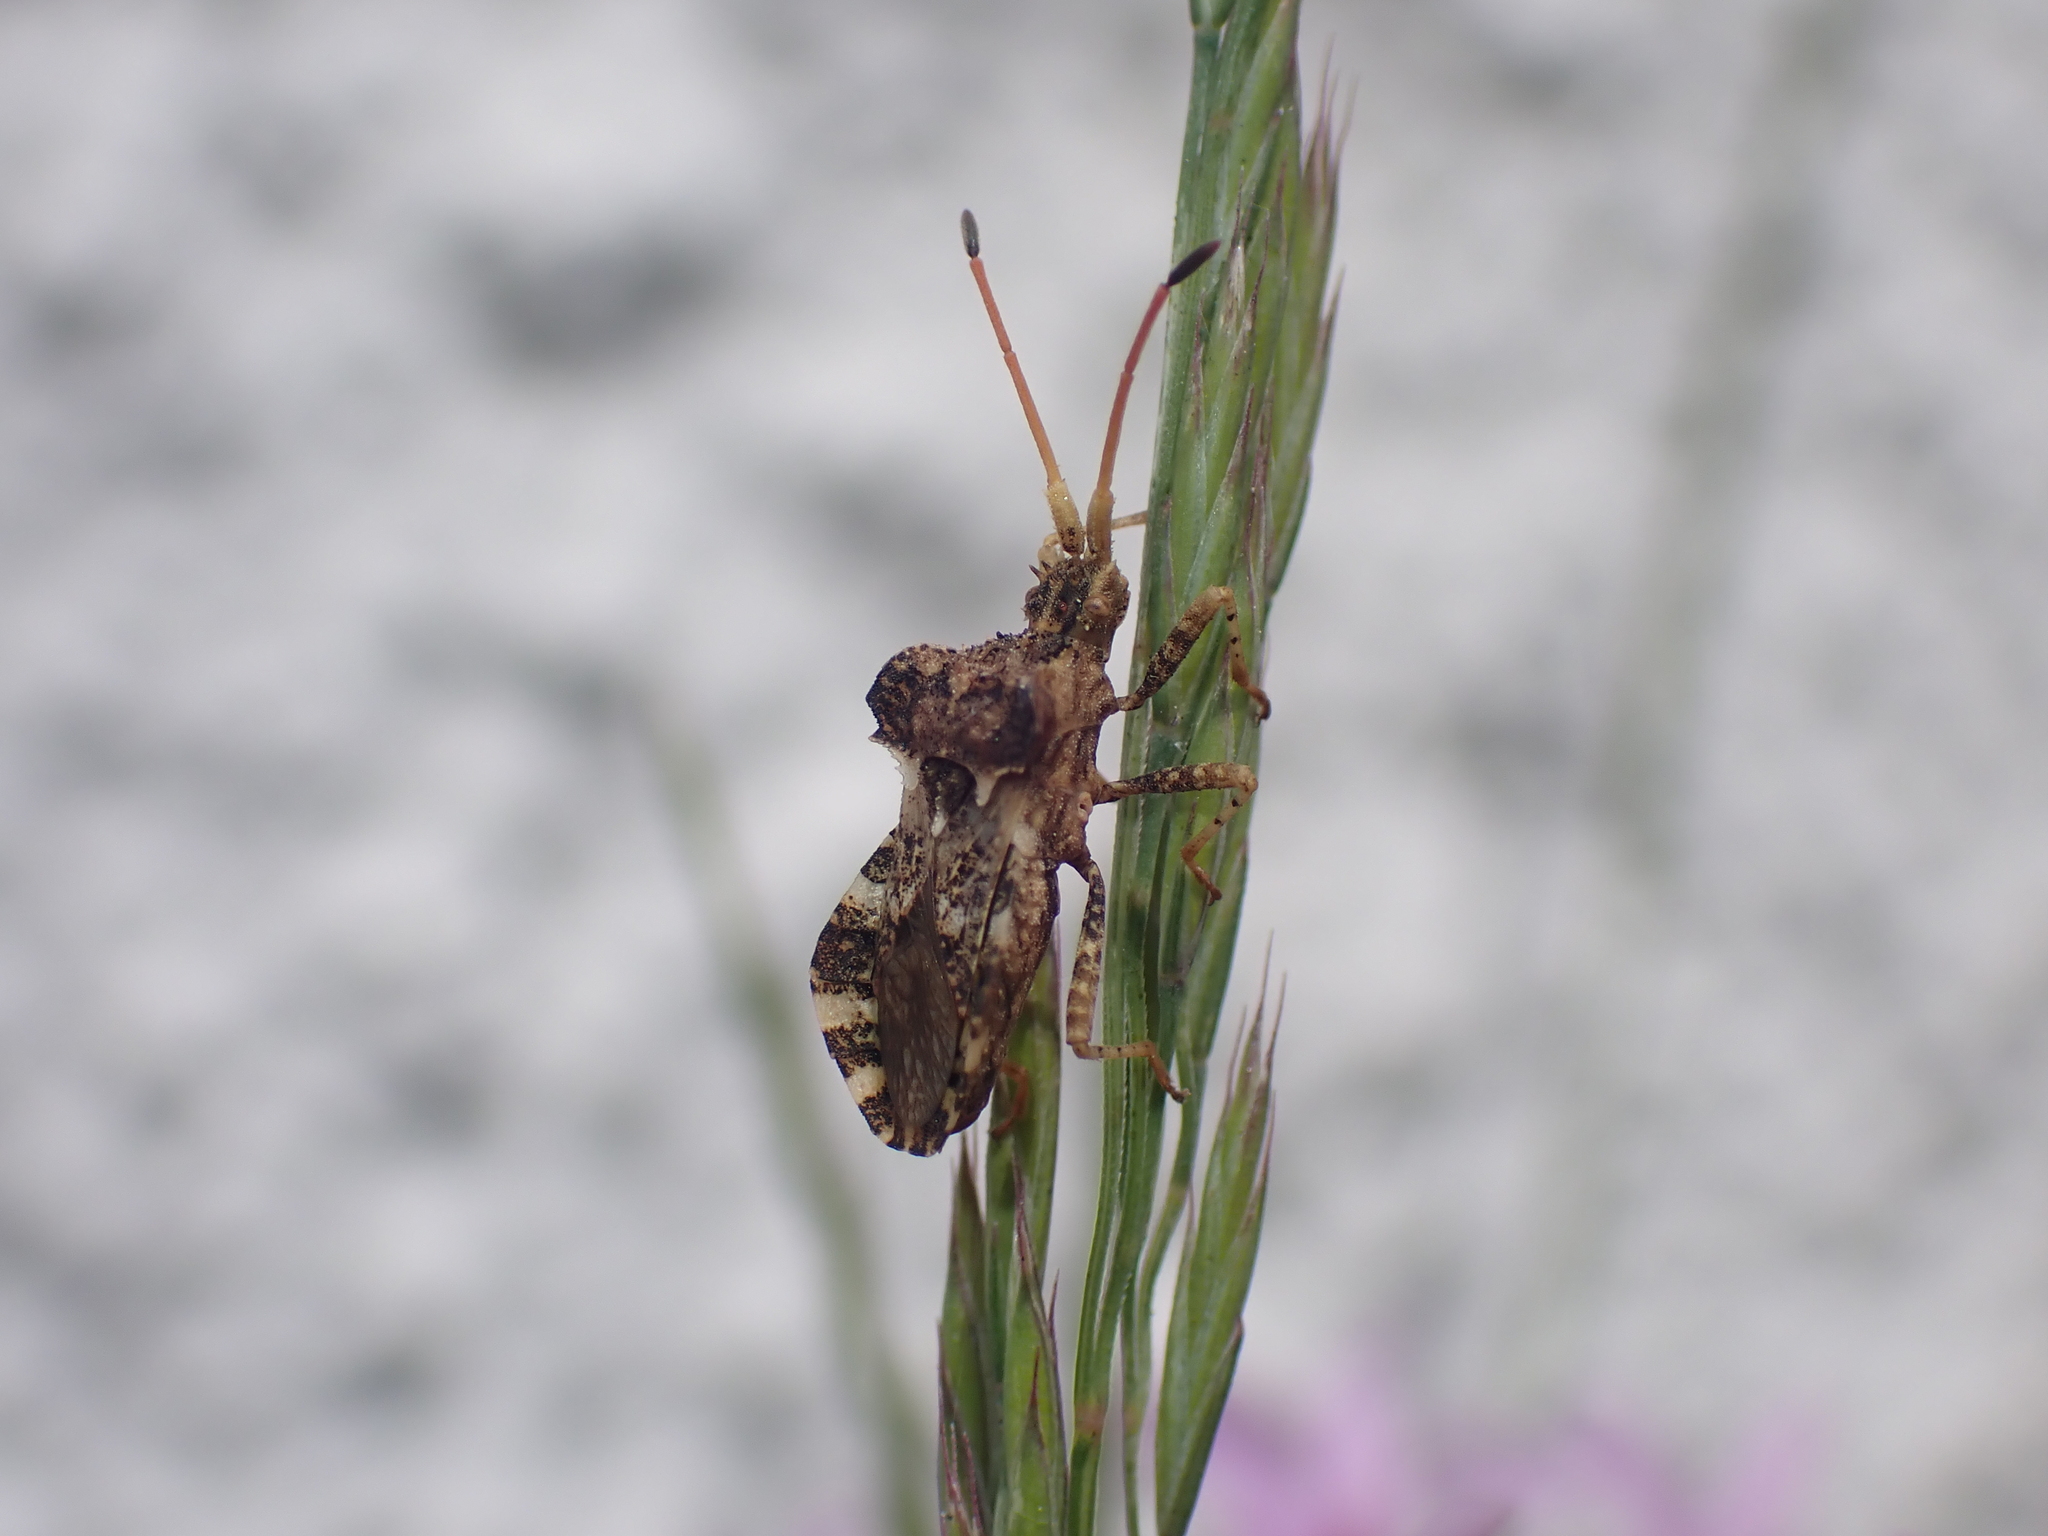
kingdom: Animalia
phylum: Arthropoda
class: Insecta
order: Hemiptera
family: Coreidae
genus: Centrocoris
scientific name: Centrocoris variegatus
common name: Leaf-footed bug
